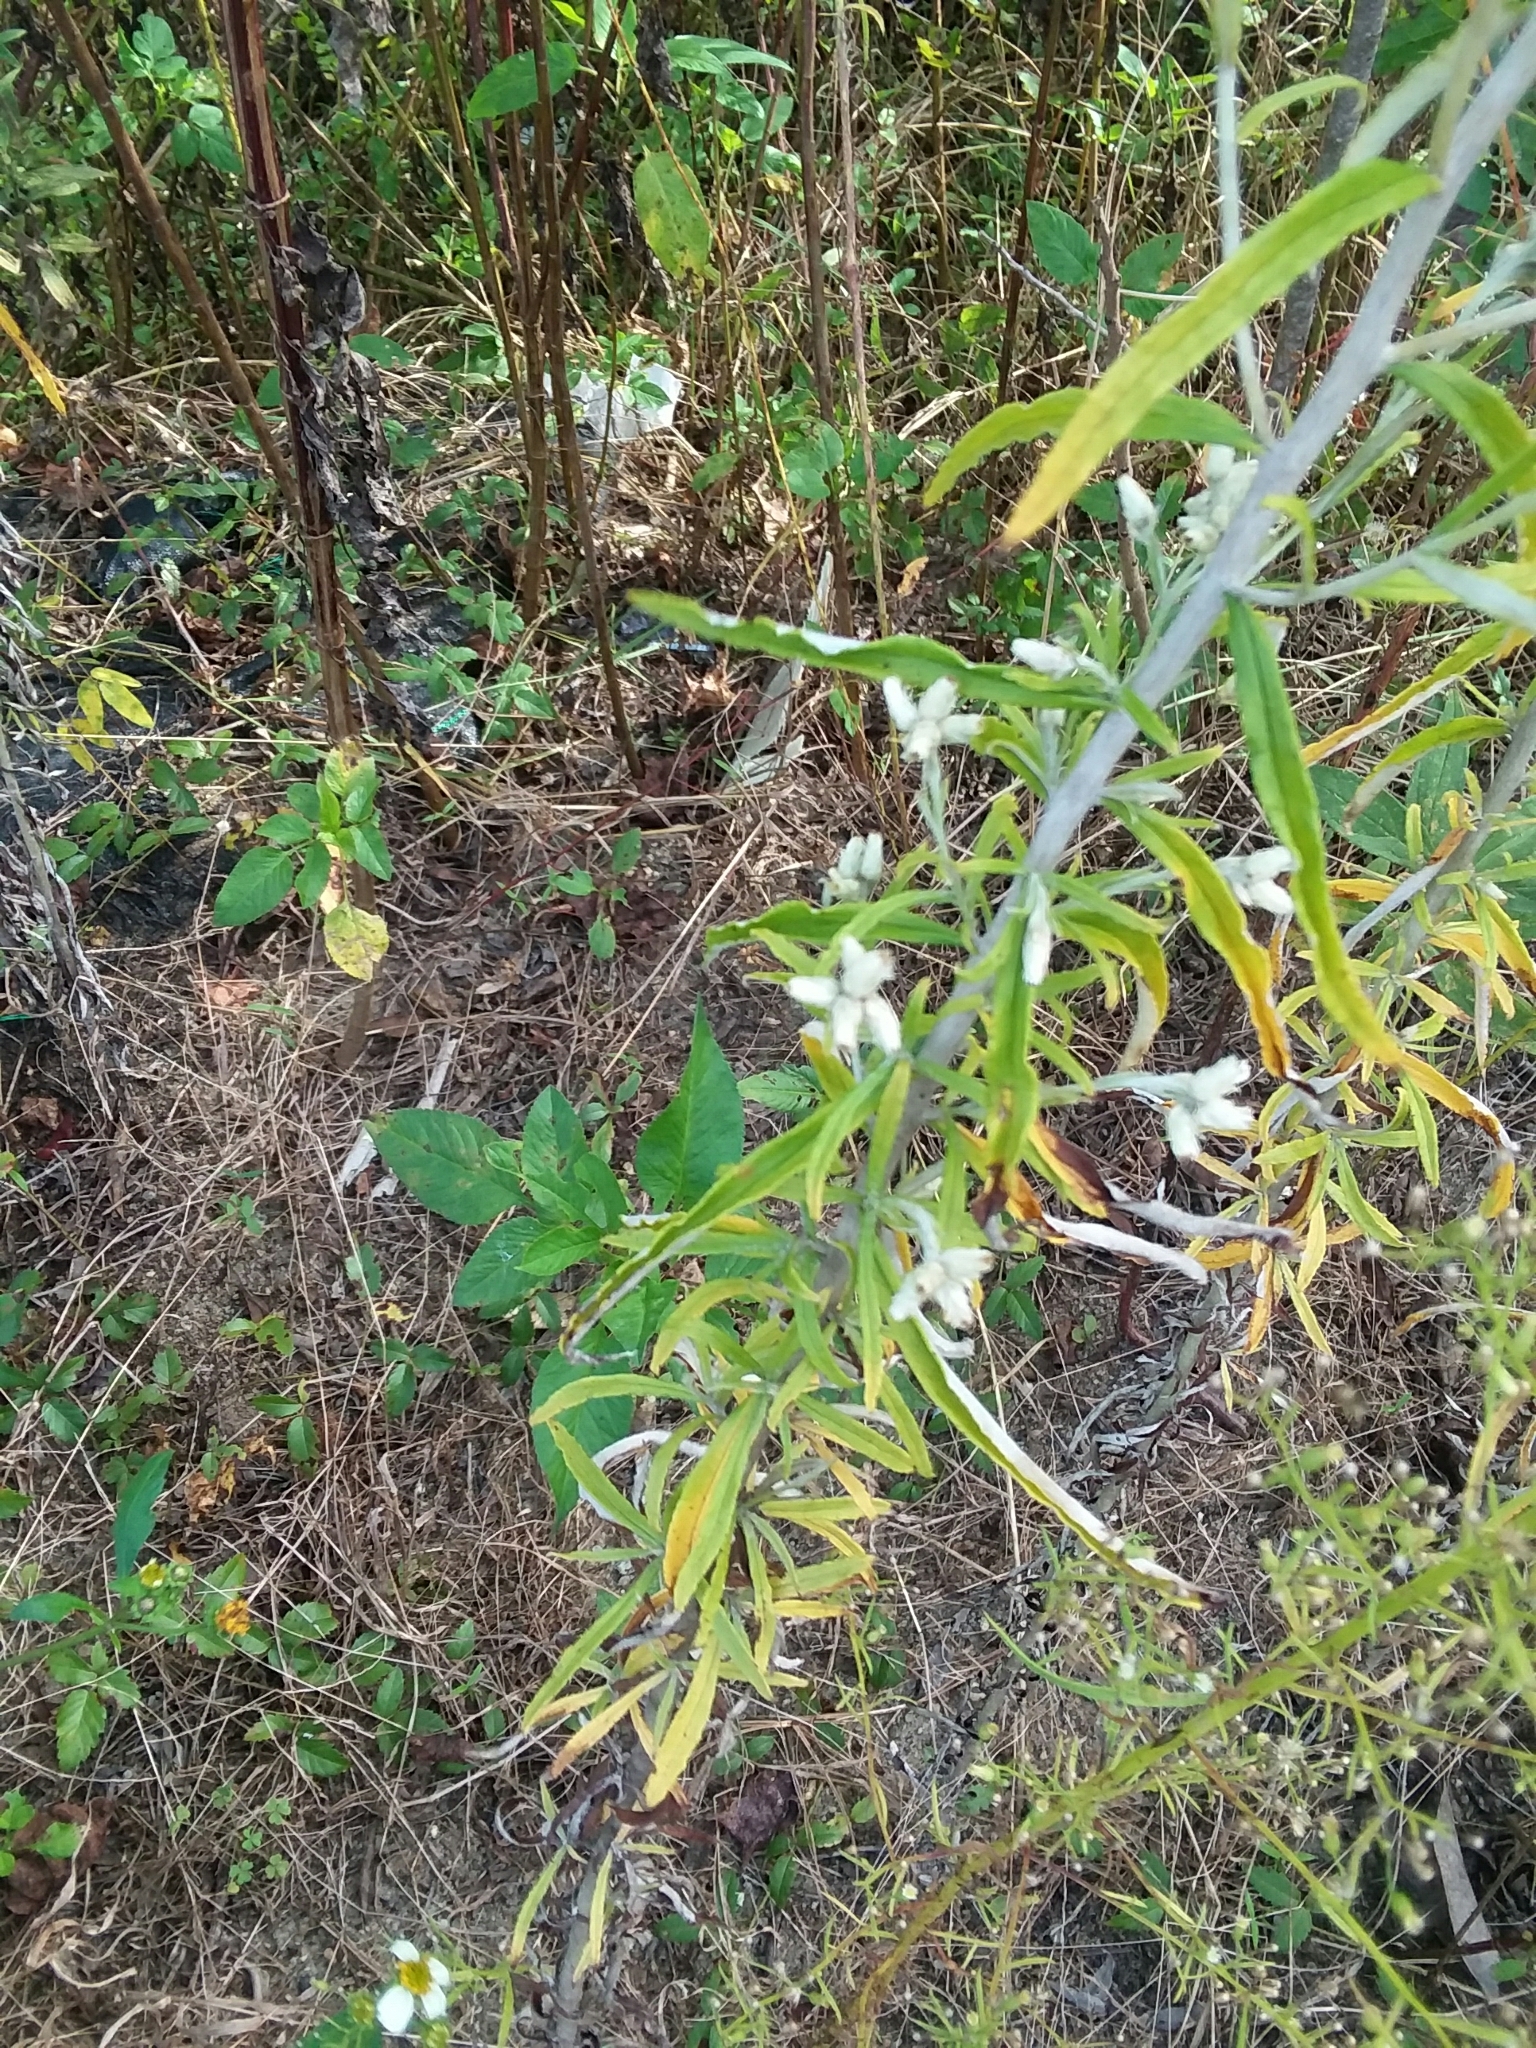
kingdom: Plantae
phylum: Tracheophyta
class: Magnoliopsida
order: Asterales
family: Asteraceae
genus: Pseudognaphalium
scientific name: Pseudognaphalium obtusifolium
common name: Eastern rabbit-tobacco
